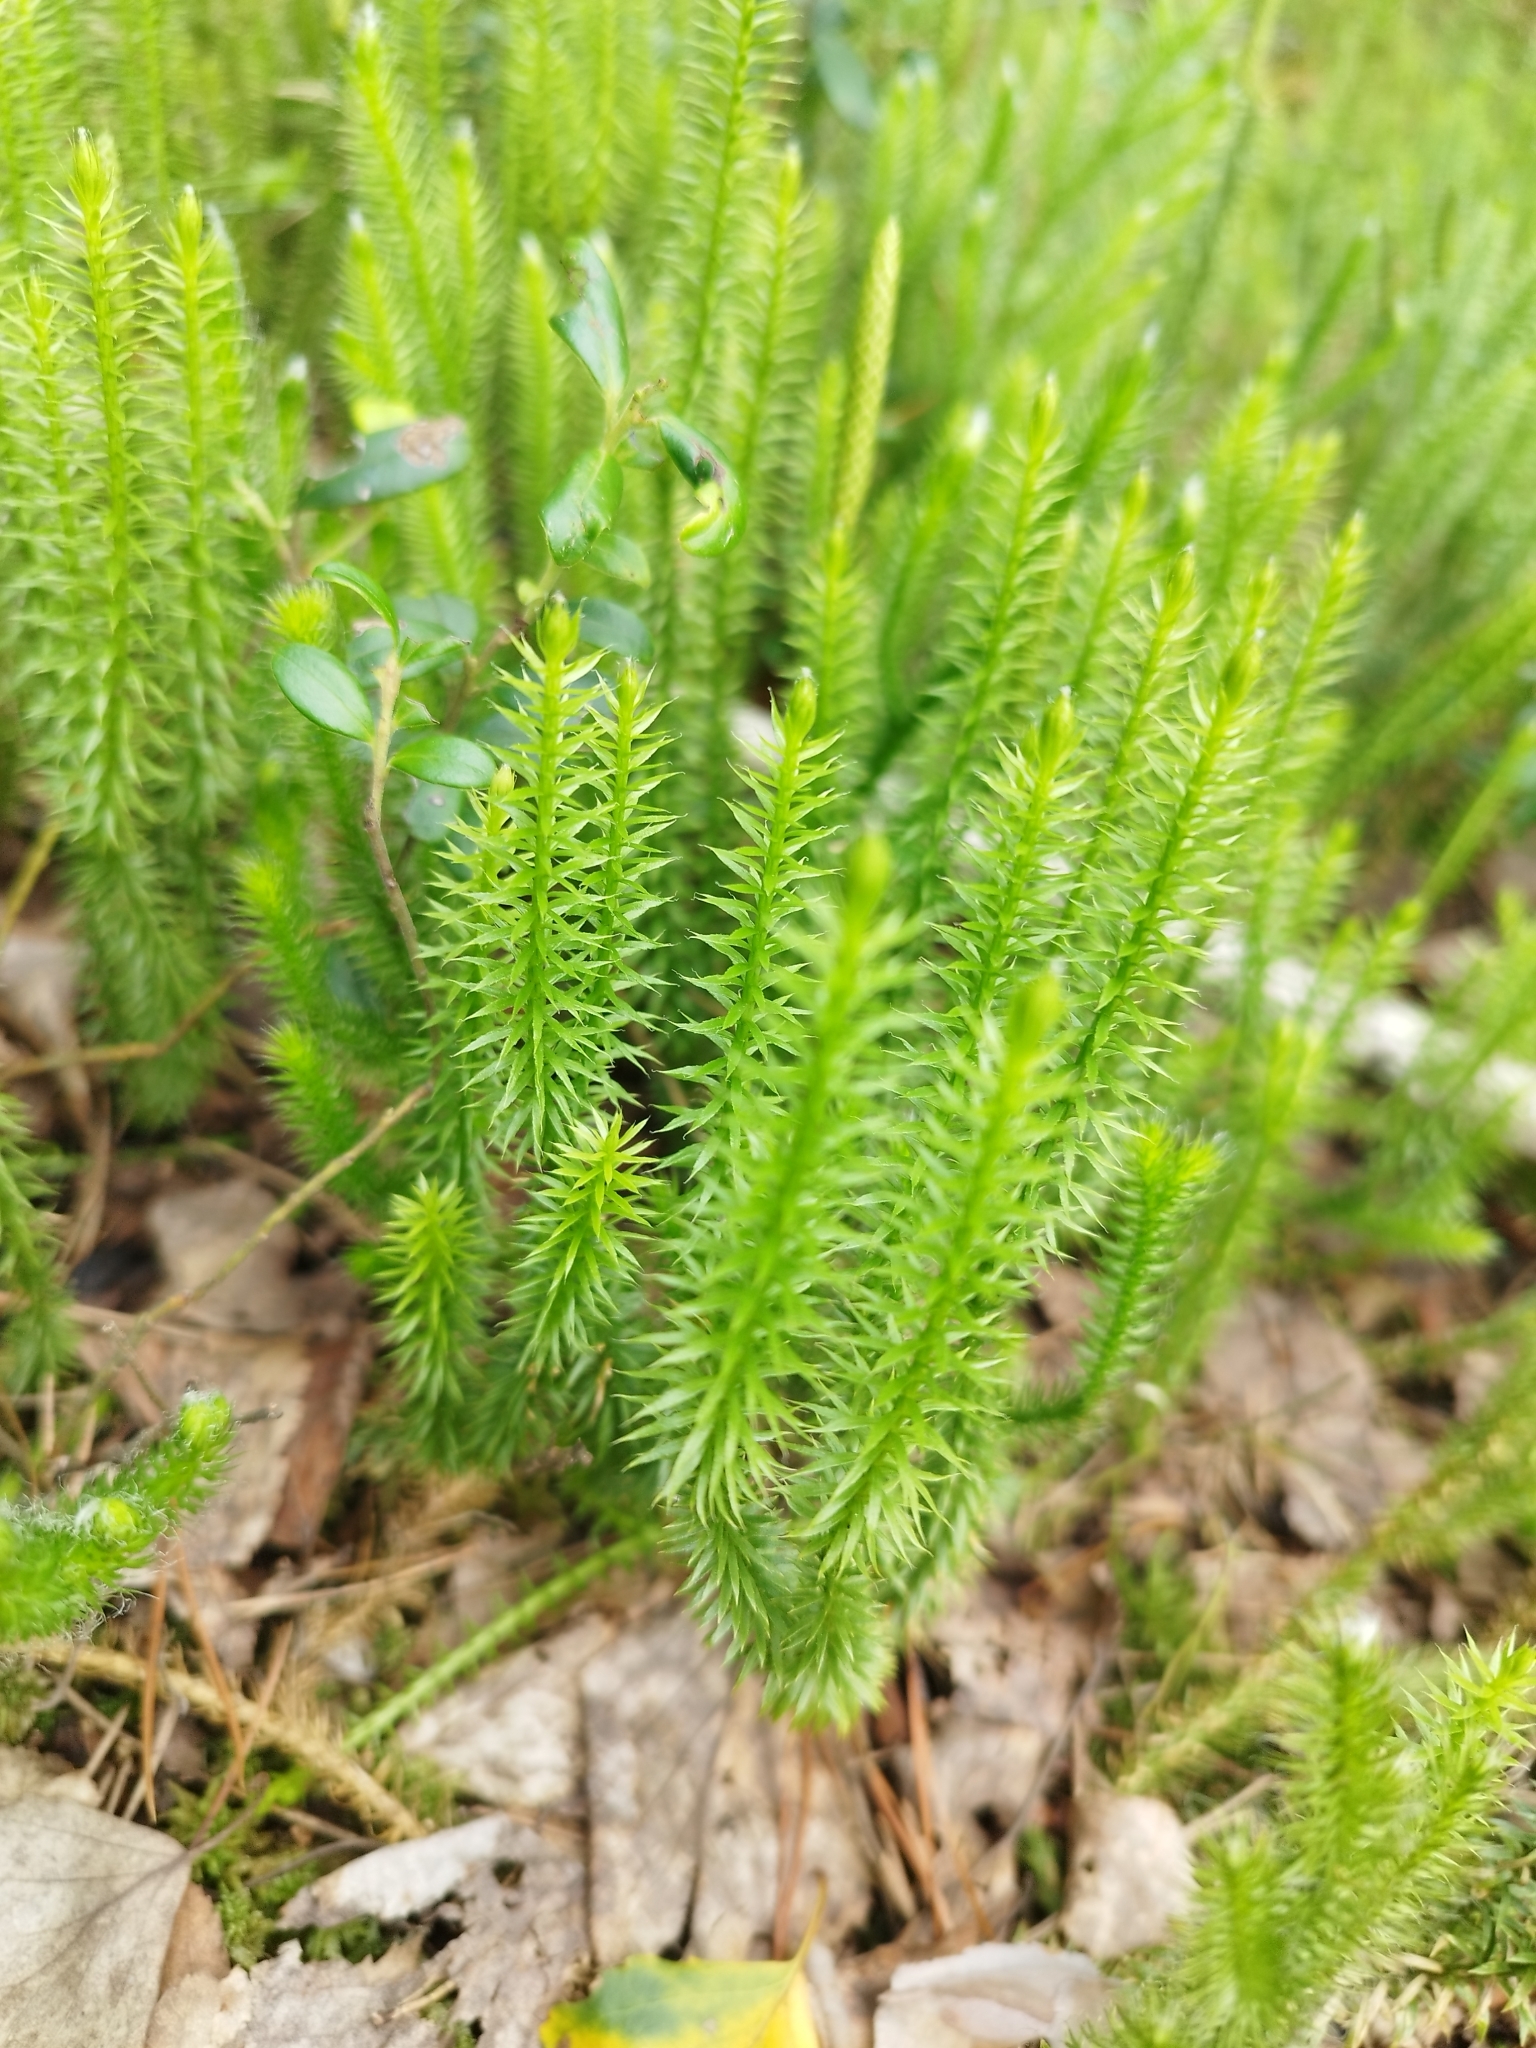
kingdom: Plantae
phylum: Tracheophyta
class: Lycopodiopsida
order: Lycopodiales
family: Lycopodiaceae
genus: Spinulum
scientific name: Spinulum annotinum
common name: Interrupted club-moss
